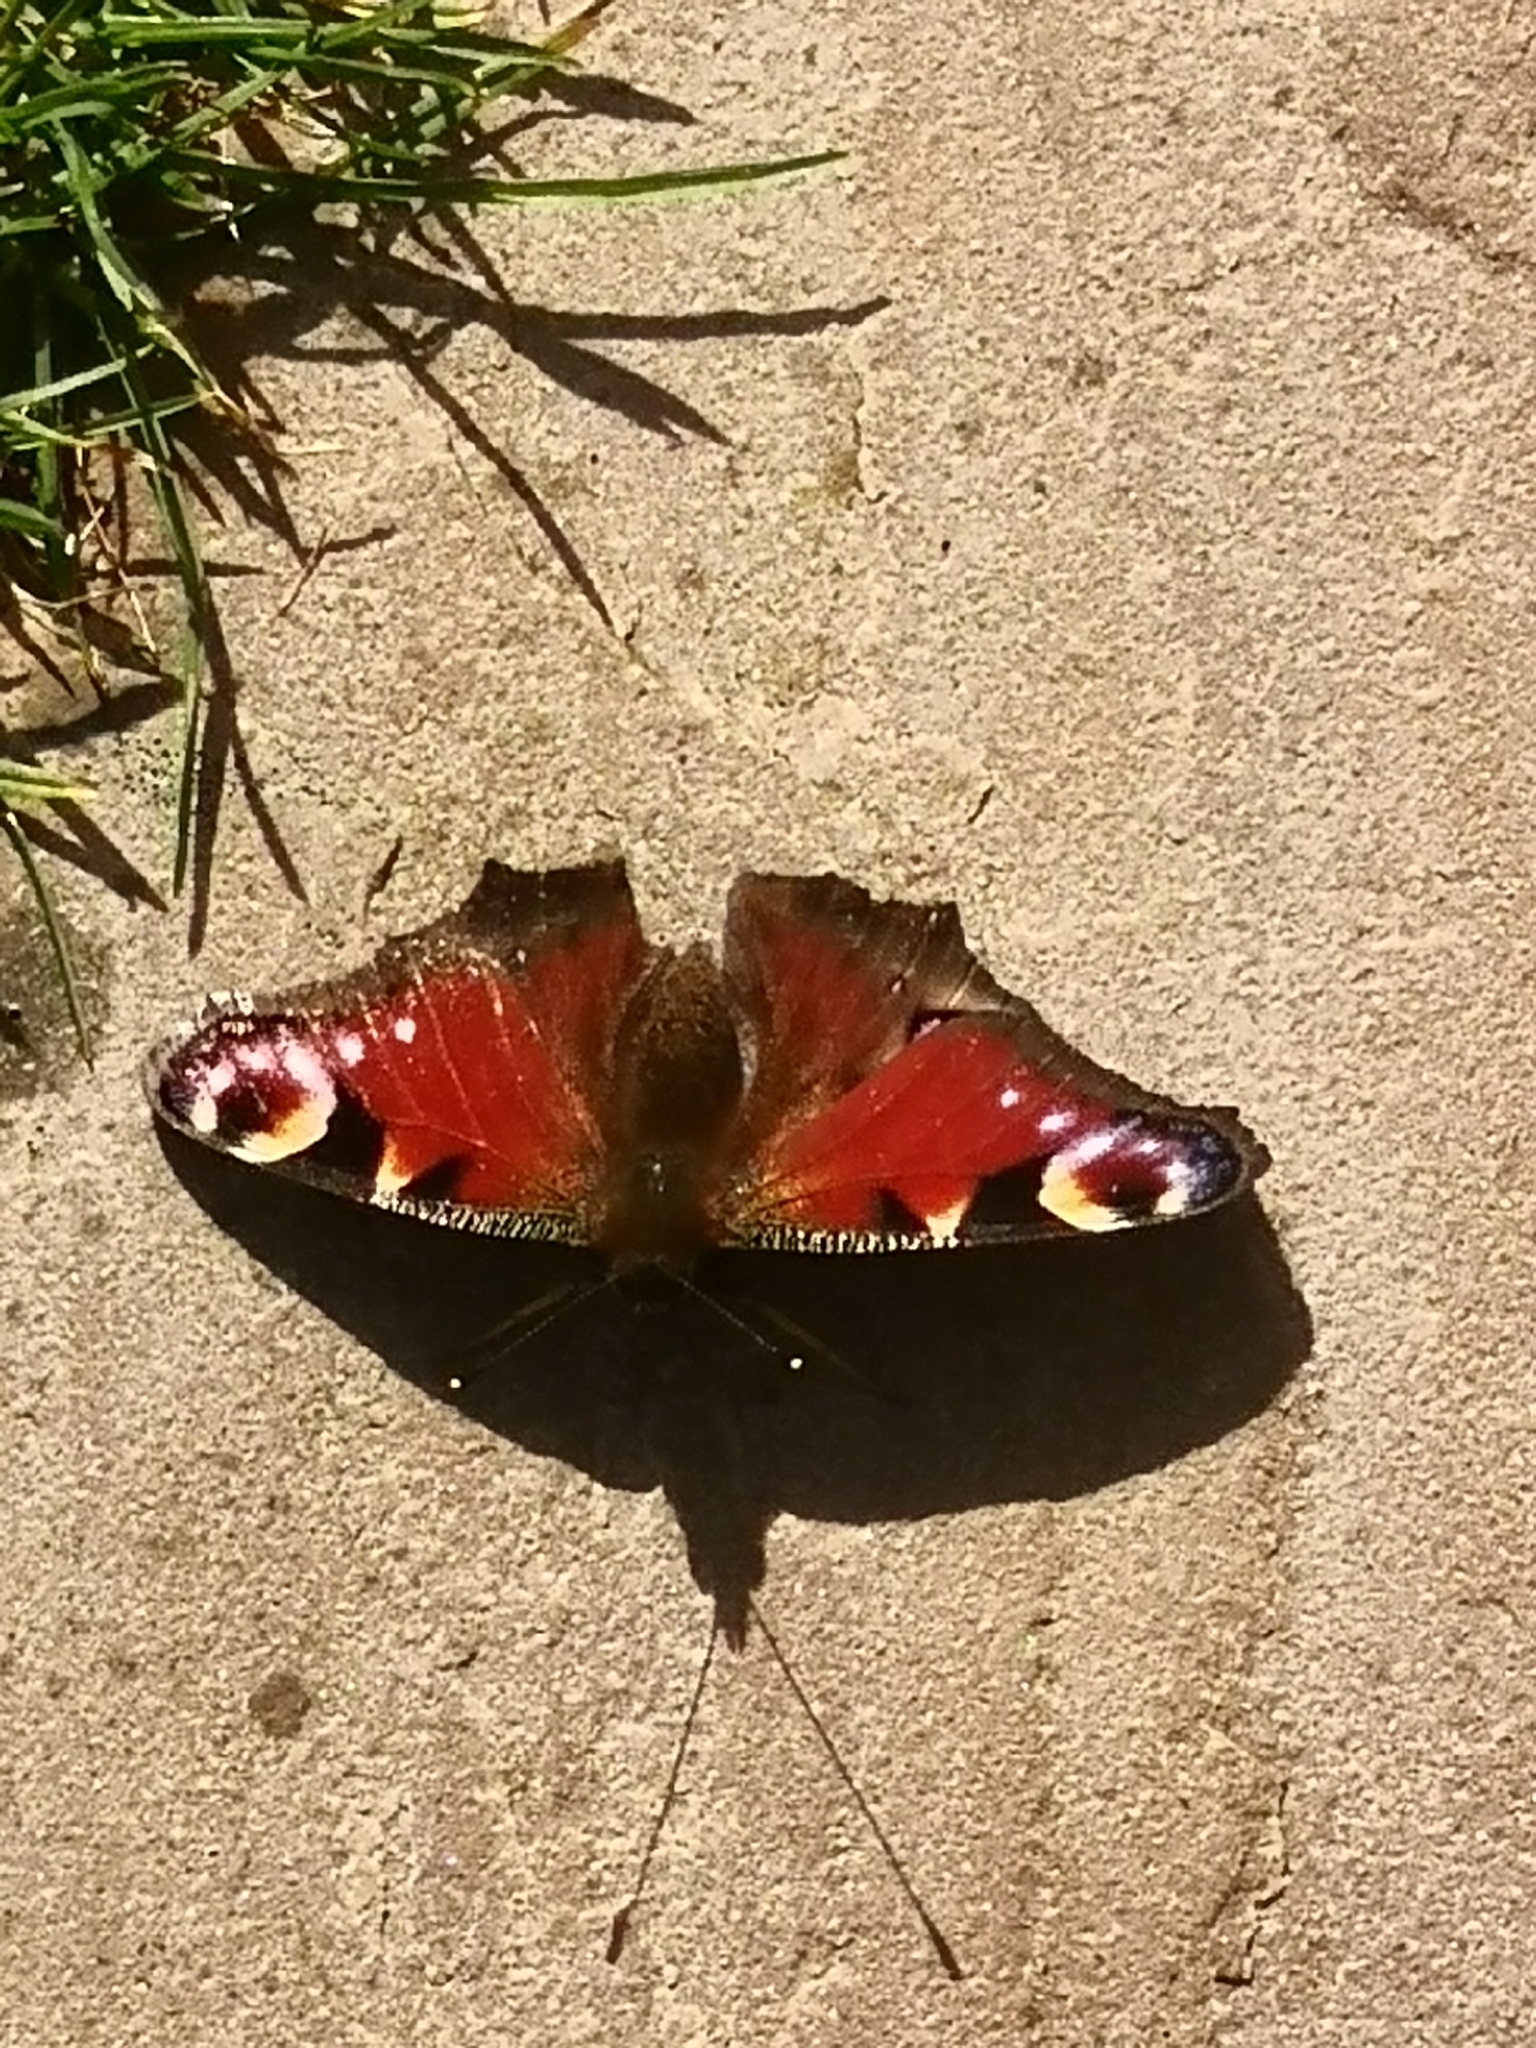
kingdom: Animalia
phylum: Arthropoda
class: Insecta
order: Lepidoptera
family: Nymphalidae
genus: Aglais
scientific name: Aglais io
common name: Peacock
